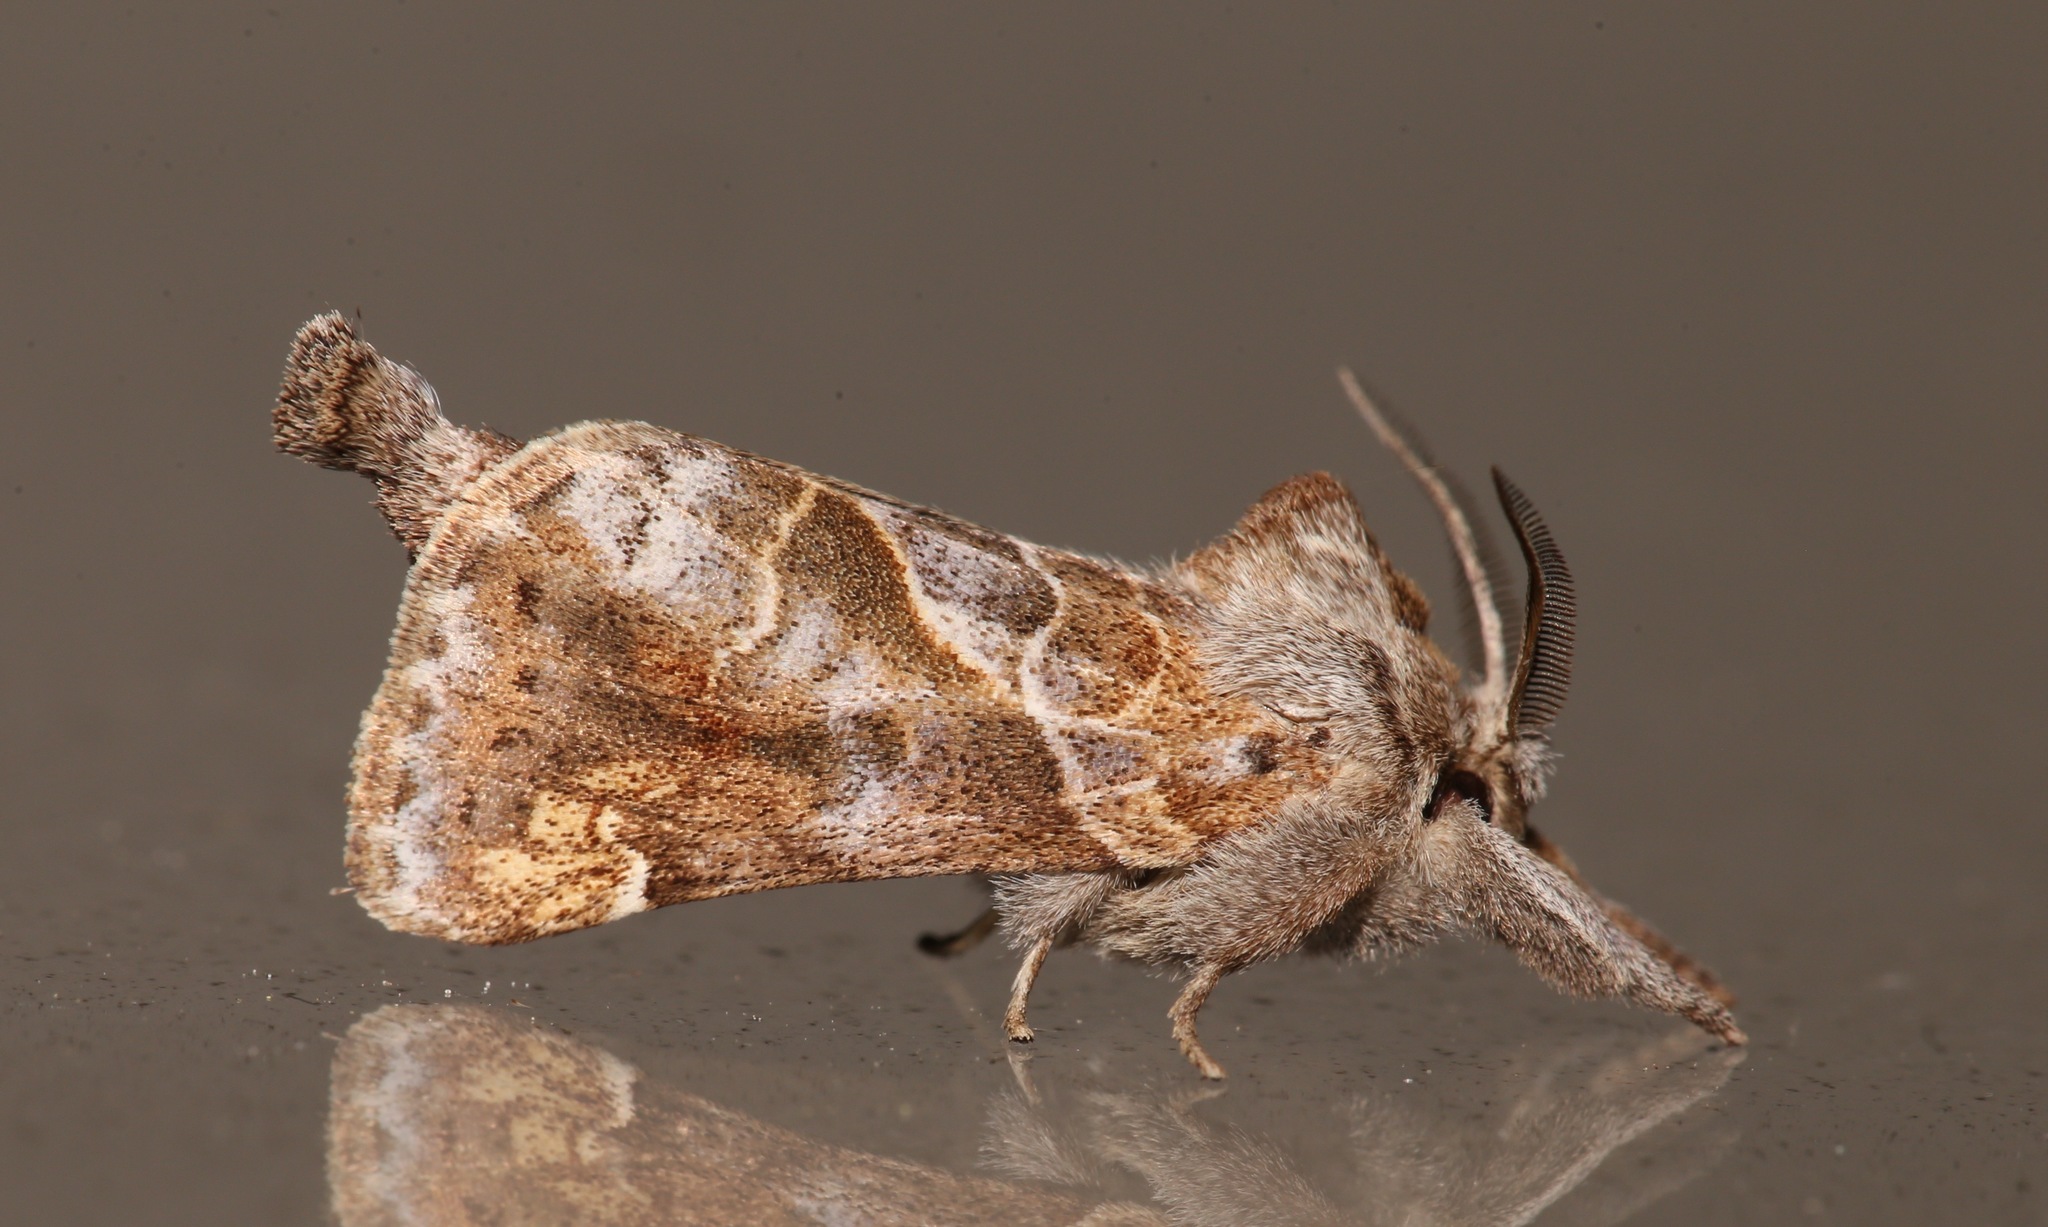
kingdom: Animalia
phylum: Arthropoda
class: Insecta
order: Lepidoptera
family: Notodontidae
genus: Clostera
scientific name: Clostera strigosa
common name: Striped chocolate-tip moth
